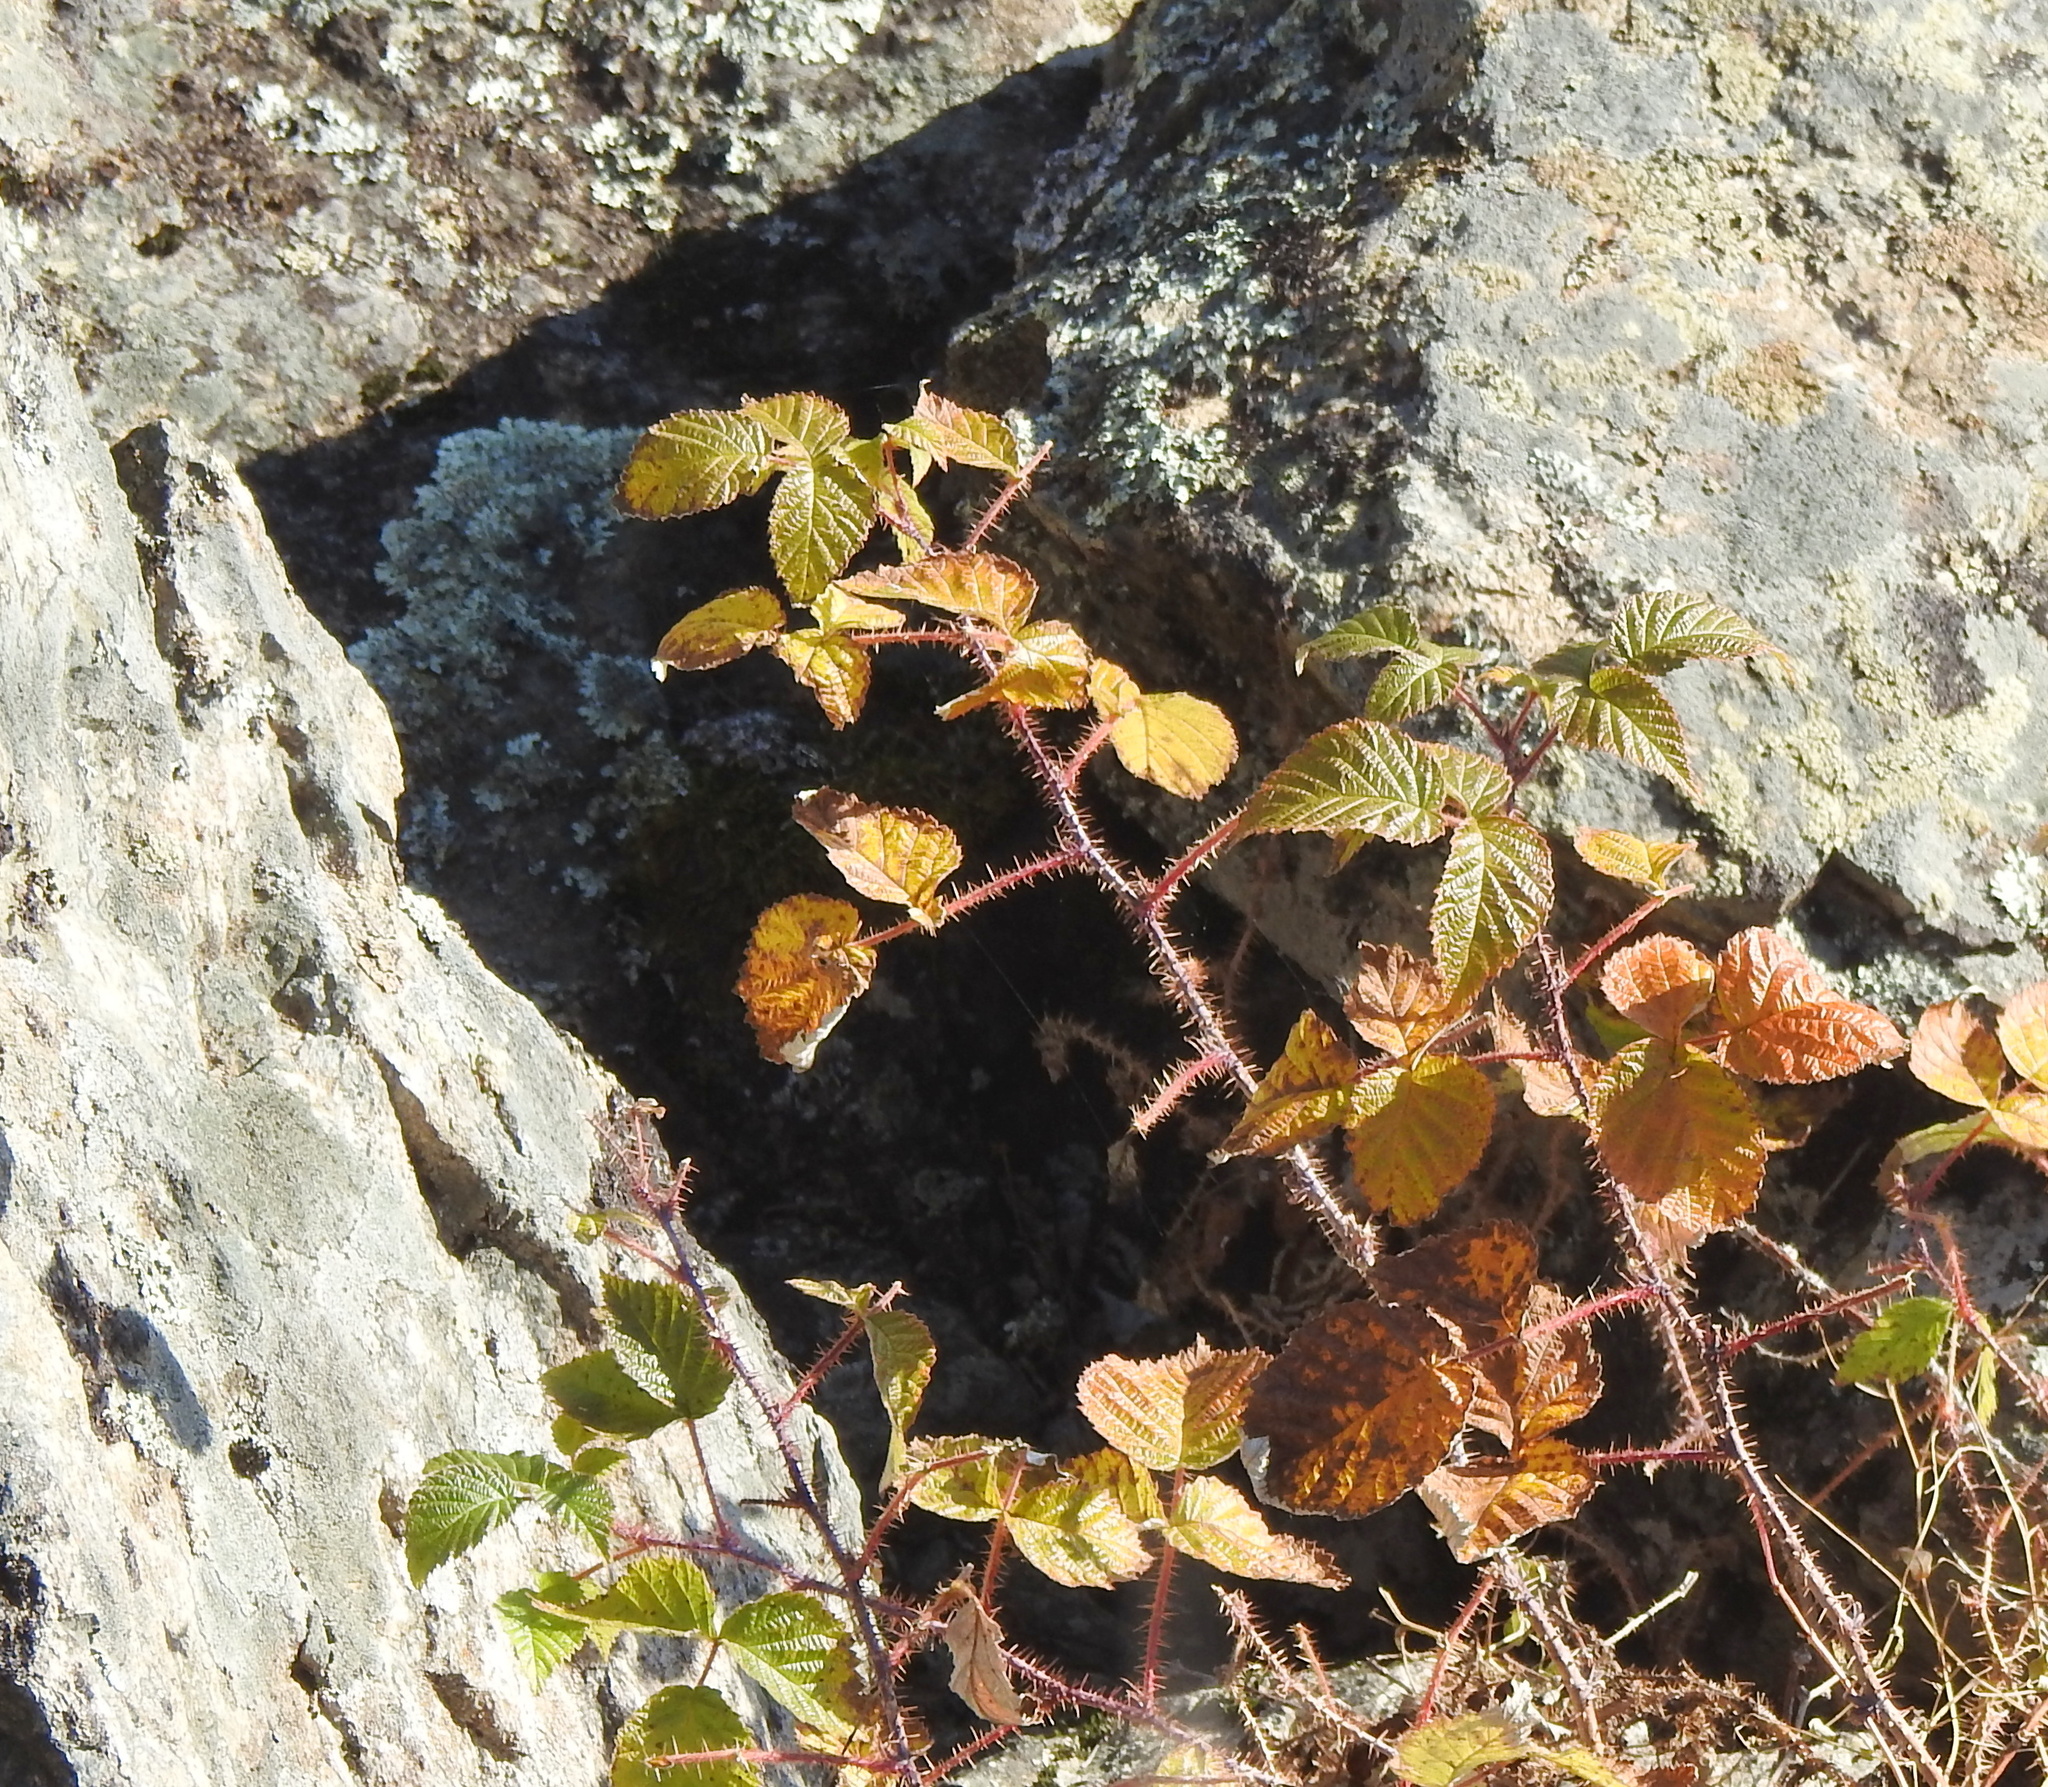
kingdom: Plantae
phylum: Tracheophyta
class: Magnoliopsida
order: Rosales
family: Rosaceae
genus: Rubus
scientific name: Rubus sachalinensis
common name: Red raspberry
